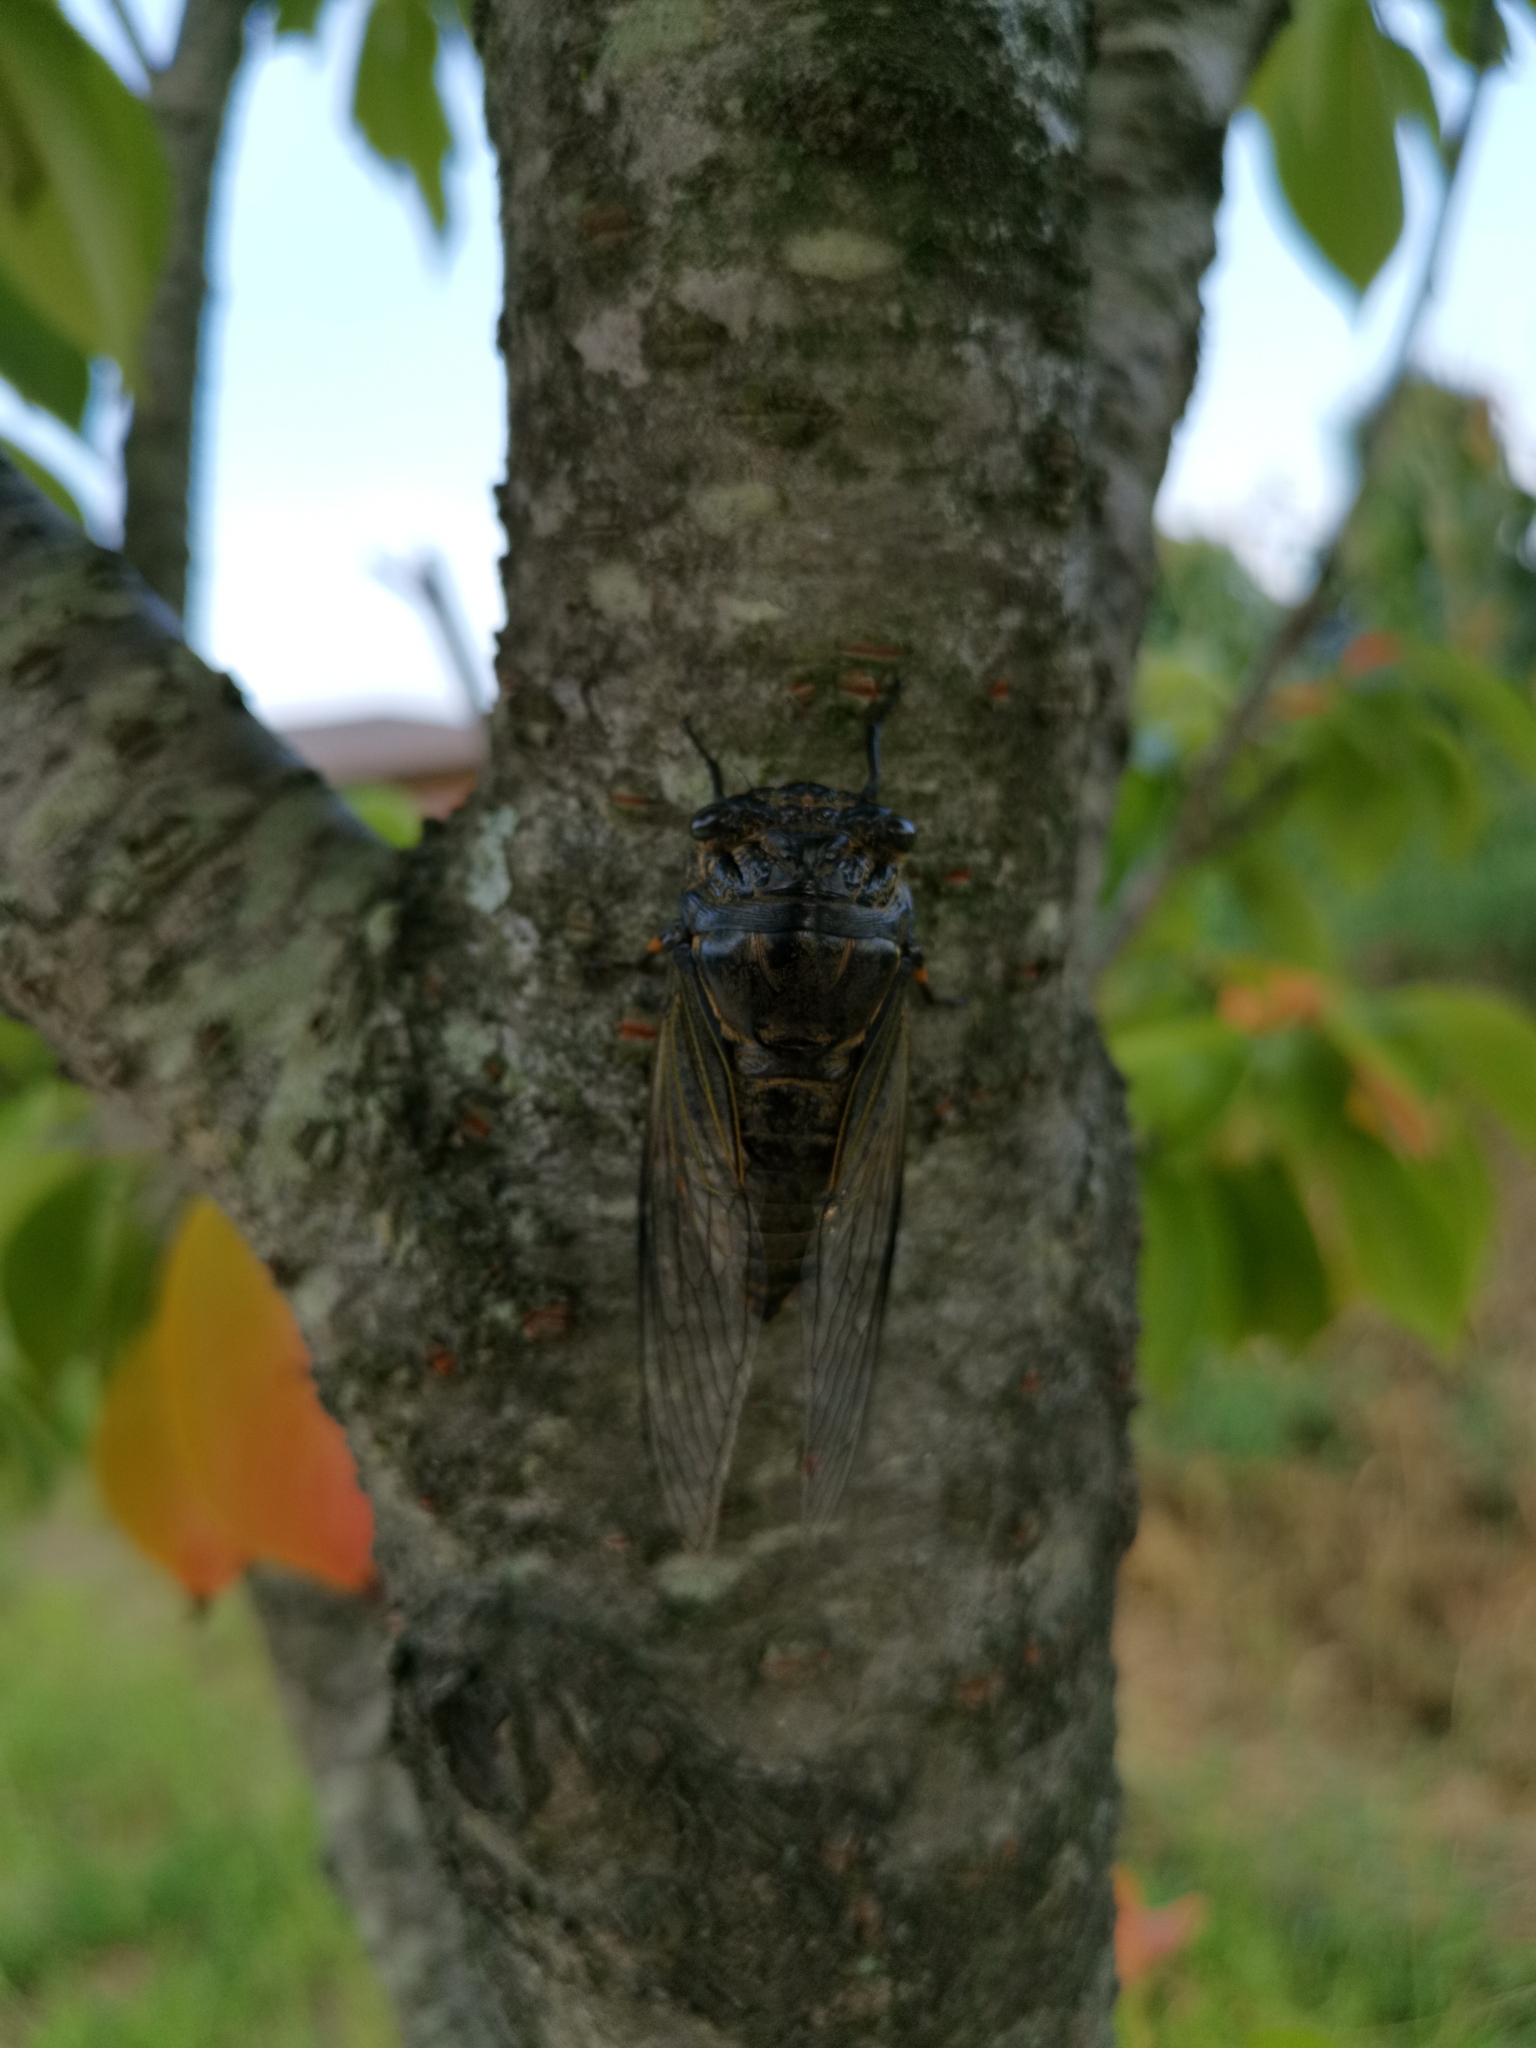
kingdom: Animalia
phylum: Arthropoda
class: Insecta
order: Hemiptera
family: Cicadidae
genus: Cryptotympana
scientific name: Cryptotympana atrata
